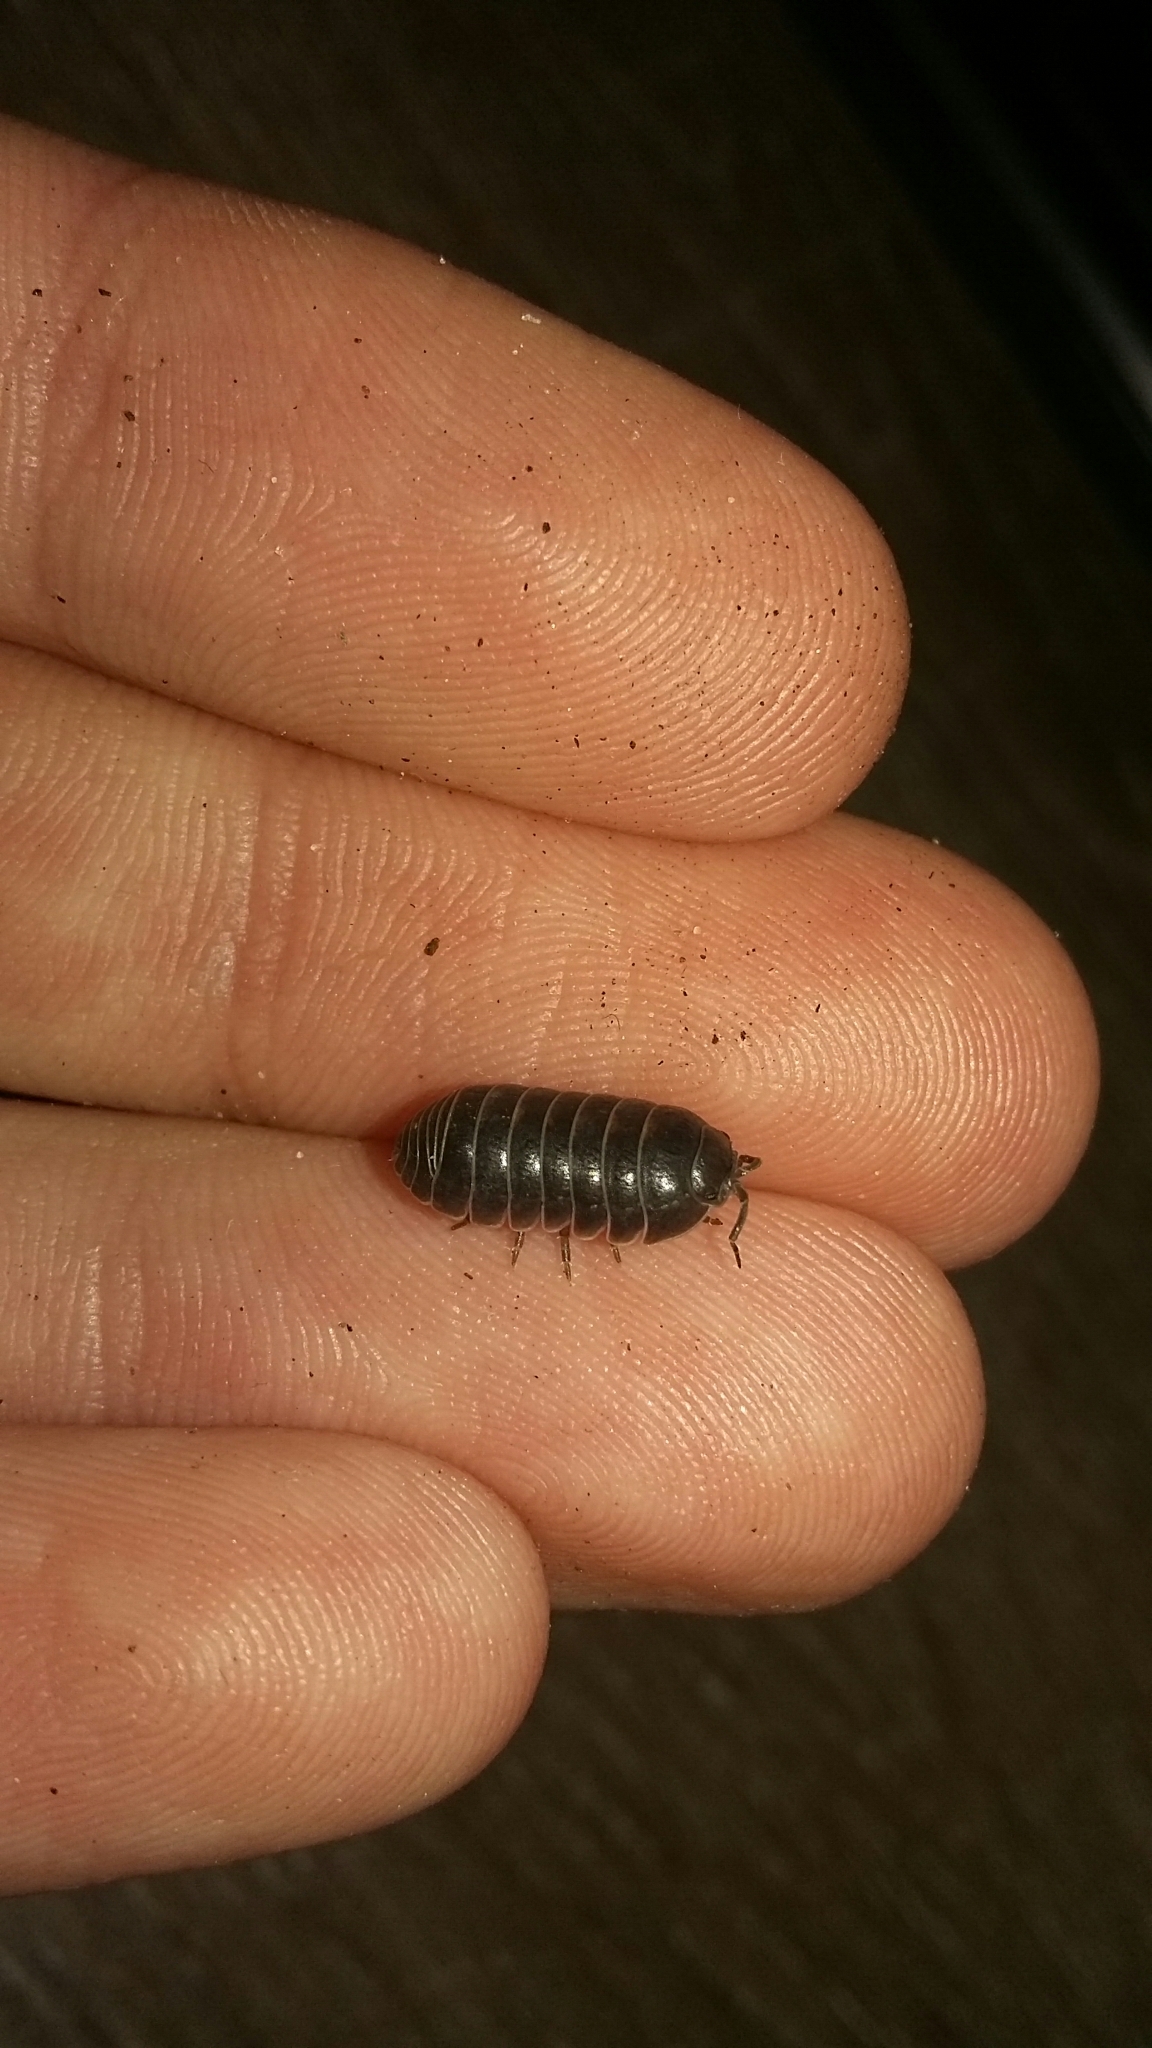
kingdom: Animalia
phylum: Arthropoda
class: Malacostraca
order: Isopoda
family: Armadillidiidae
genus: Armadillidium
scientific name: Armadillidium vulgare
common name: Common pill woodlouse
